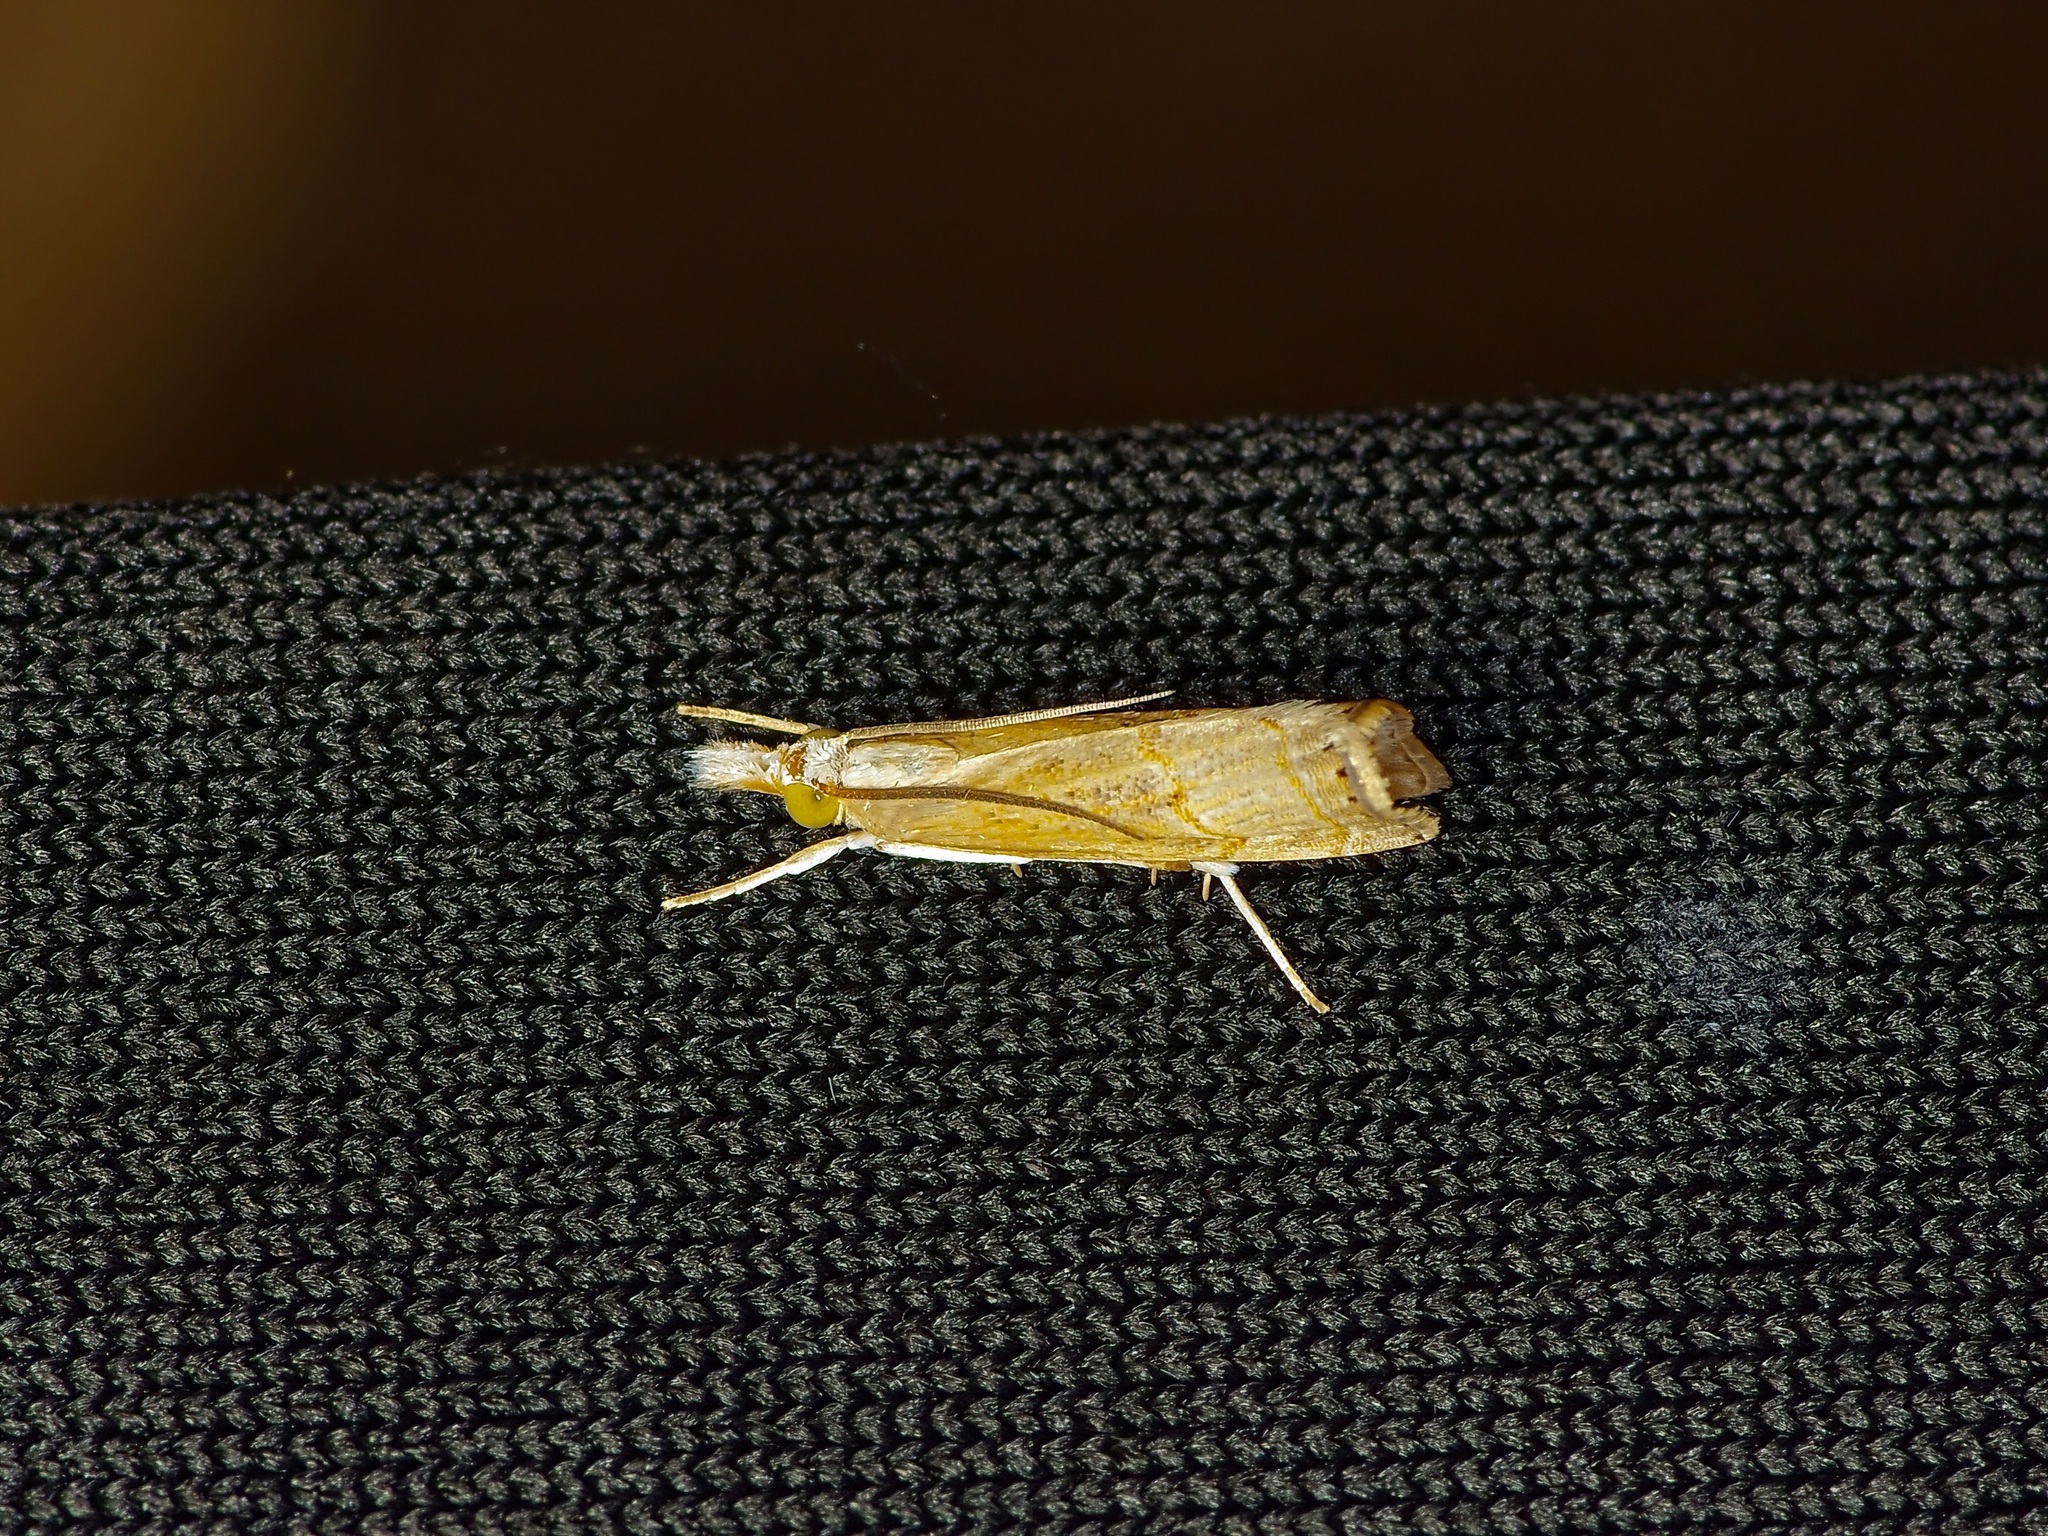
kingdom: Animalia
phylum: Arthropoda
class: Insecta
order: Lepidoptera
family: Crambidae
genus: Parapediasia
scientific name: Parapediasia teterellus
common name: Bluegrass webworm moth
